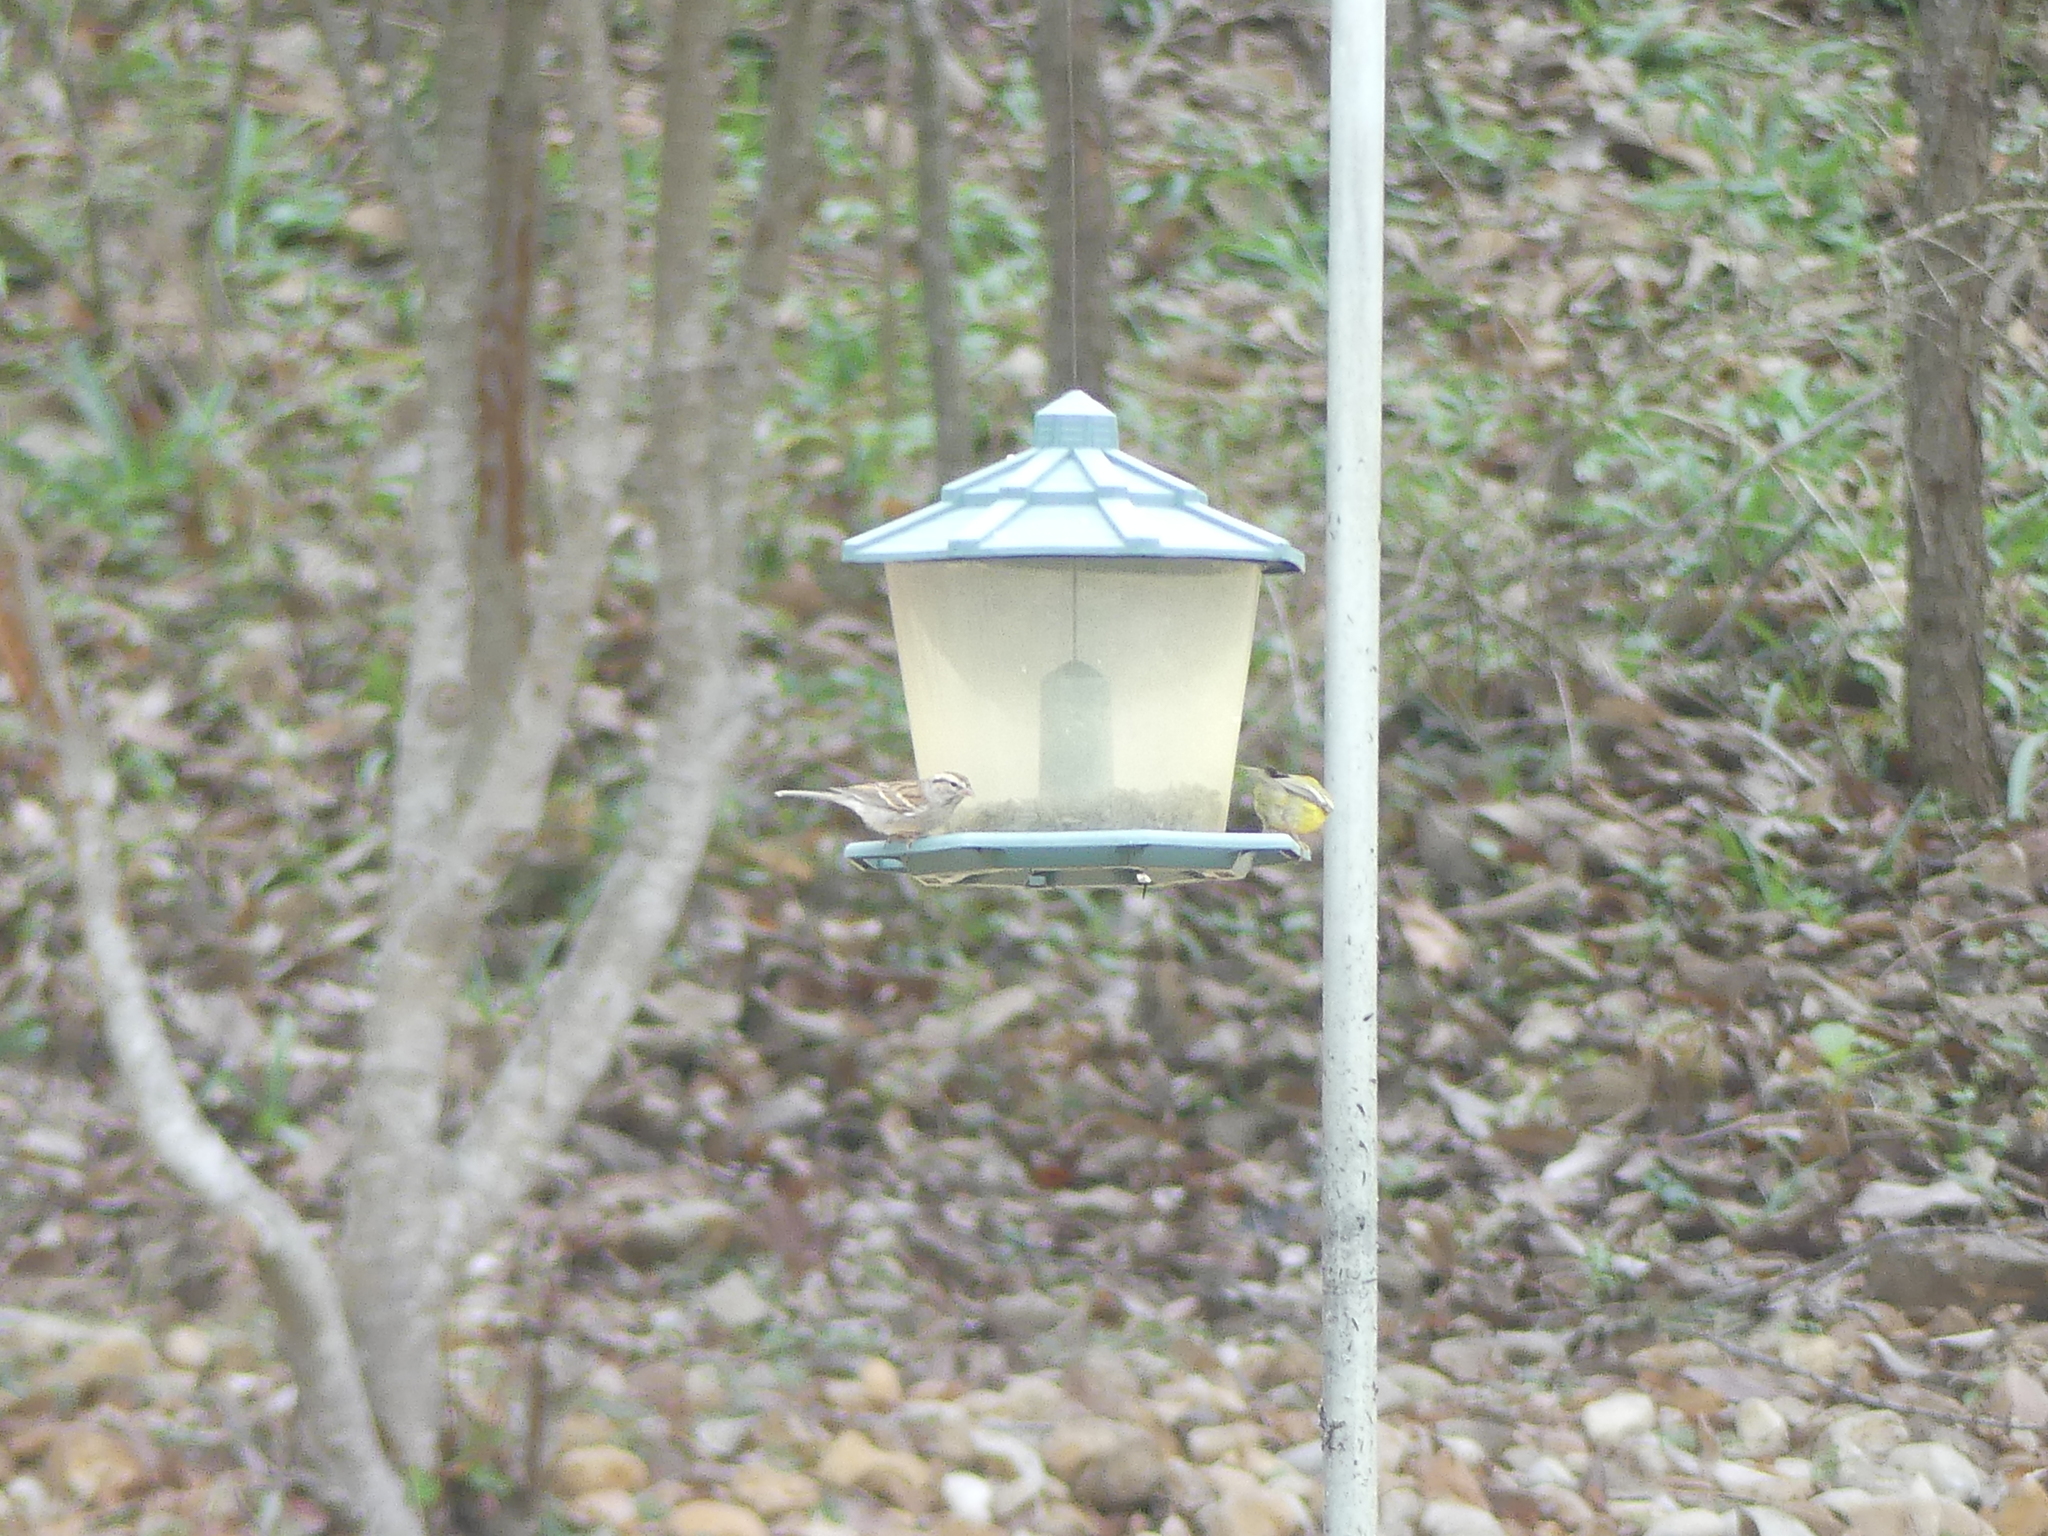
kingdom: Animalia
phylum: Chordata
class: Aves
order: Passeriformes
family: Passerellidae
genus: Spizella
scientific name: Spizella passerina
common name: Chipping sparrow
